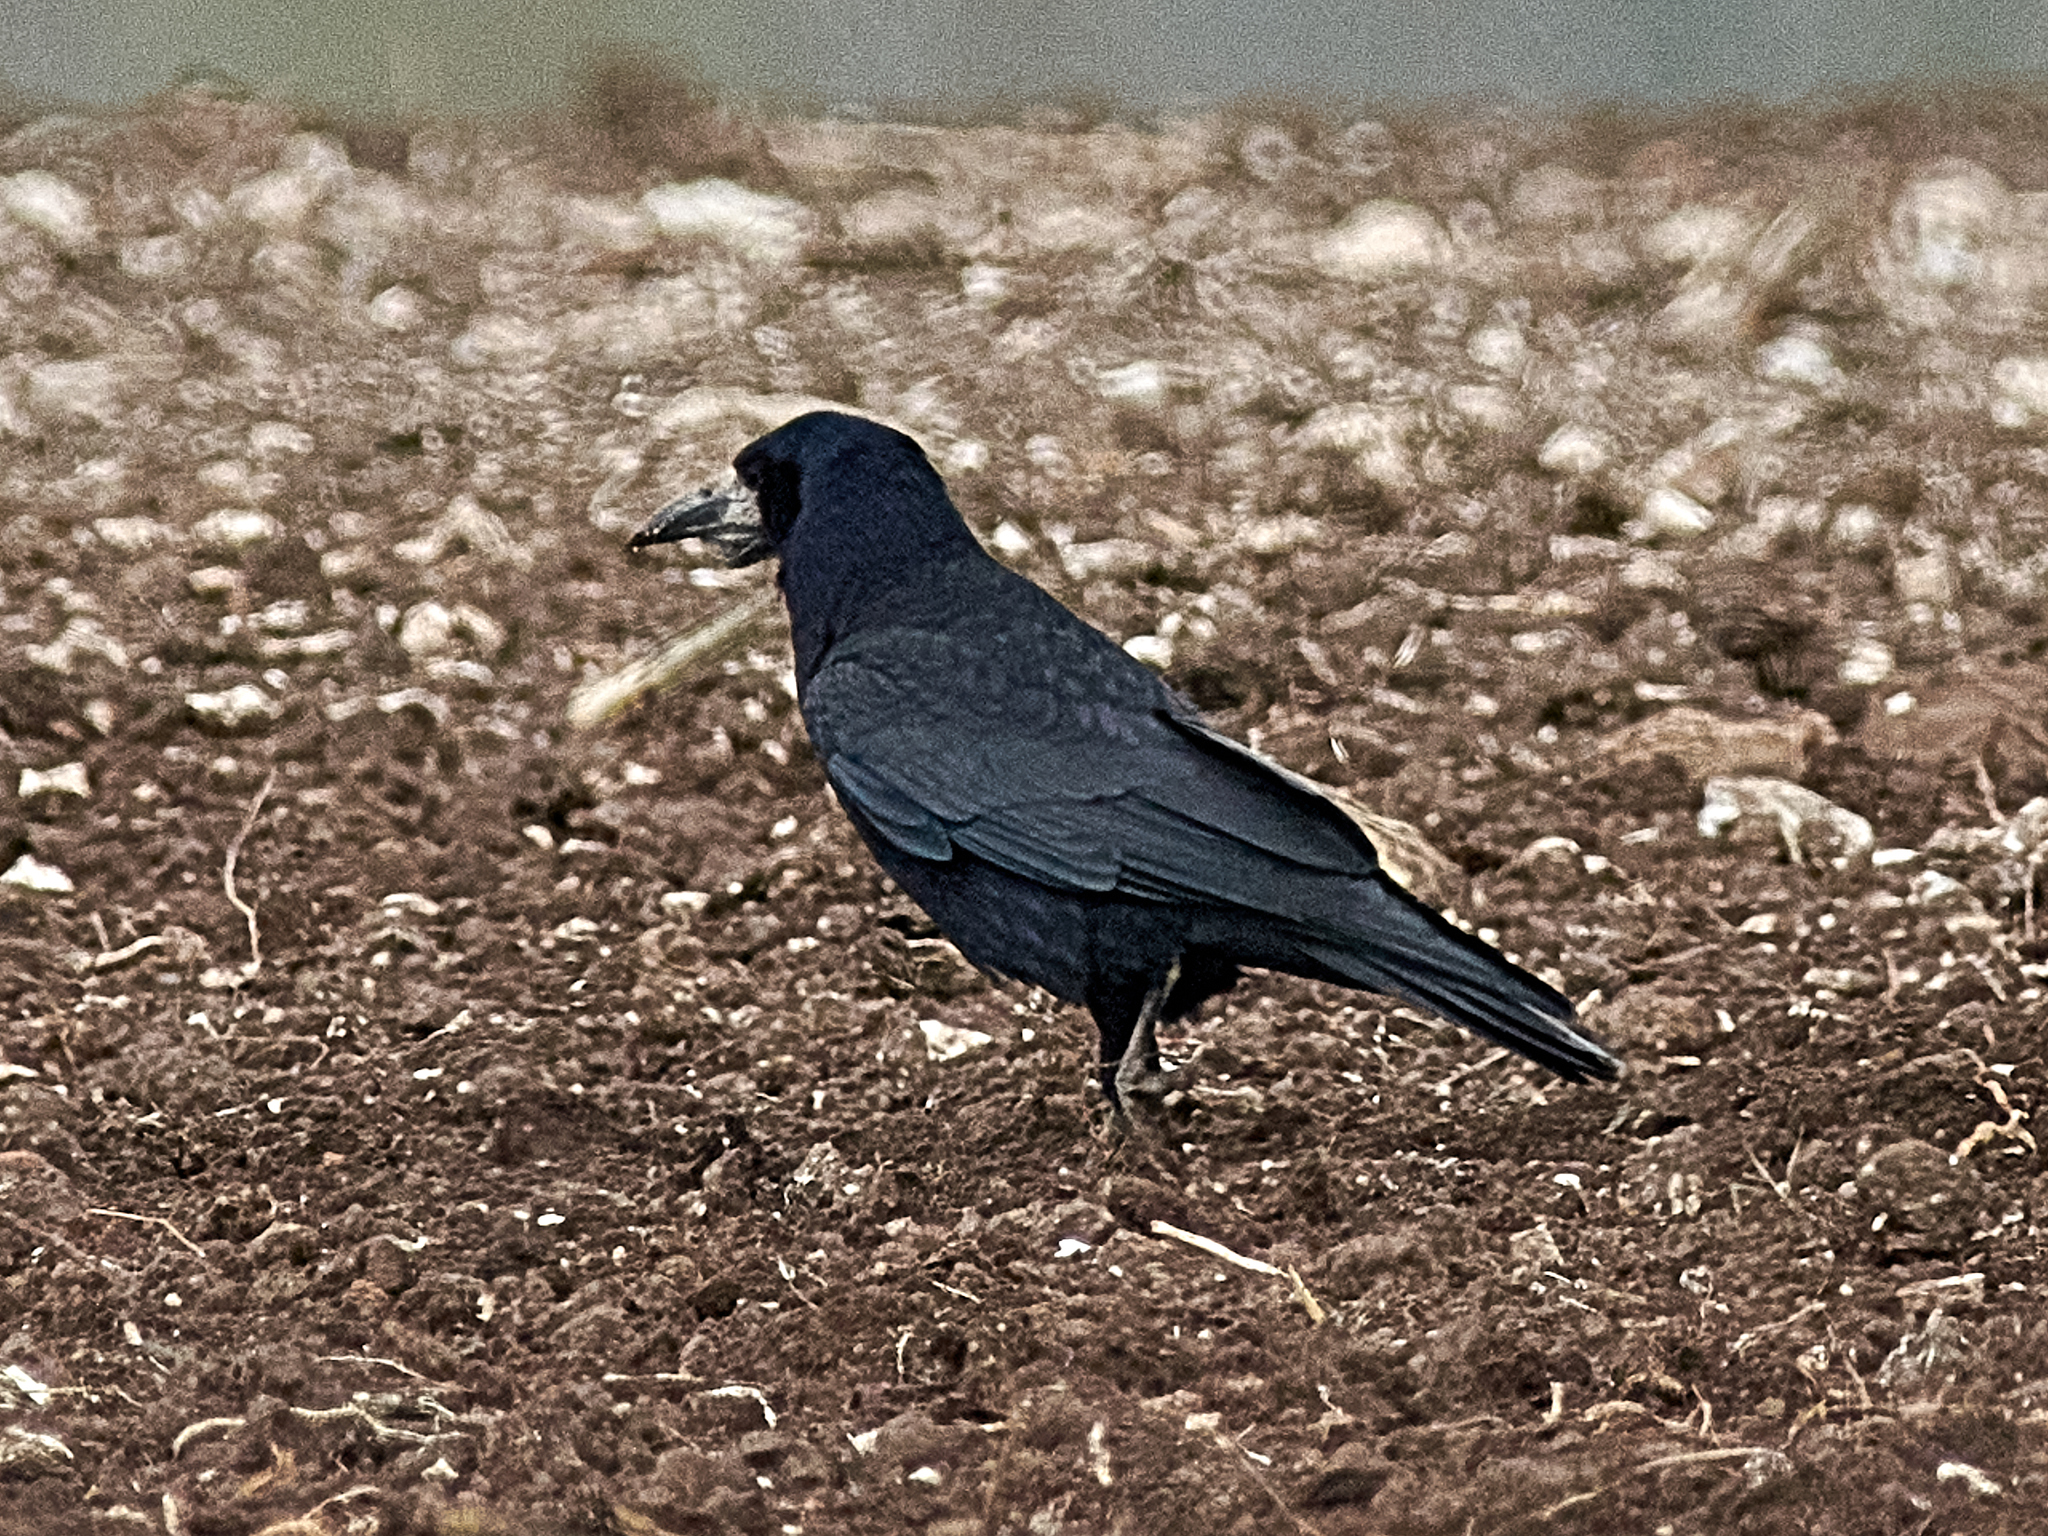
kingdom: Animalia
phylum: Chordata
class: Aves
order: Passeriformes
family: Corvidae
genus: Corvus
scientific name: Corvus frugilegus
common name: Rook
